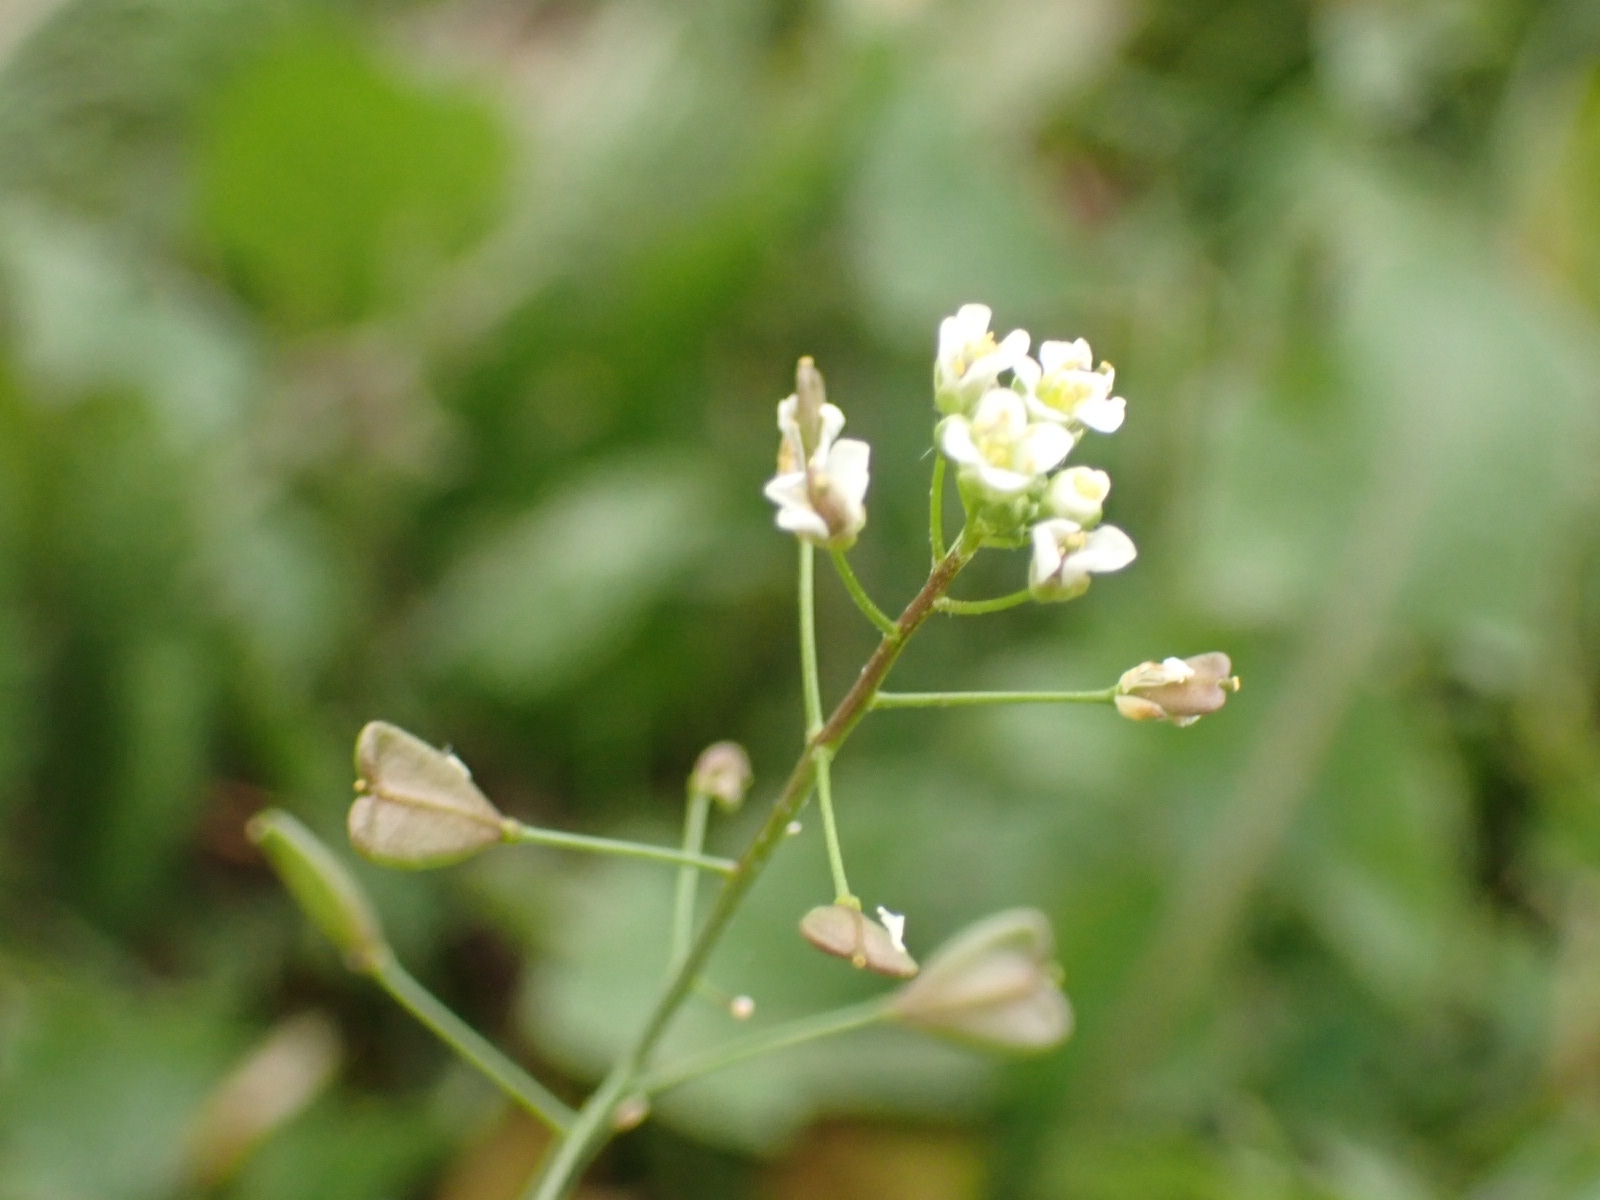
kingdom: Plantae
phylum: Tracheophyta
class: Magnoliopsida
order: Brassicales
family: Brassicaceae
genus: Capsella
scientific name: Capsella bursa-pastoris
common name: Shepherd's purse
